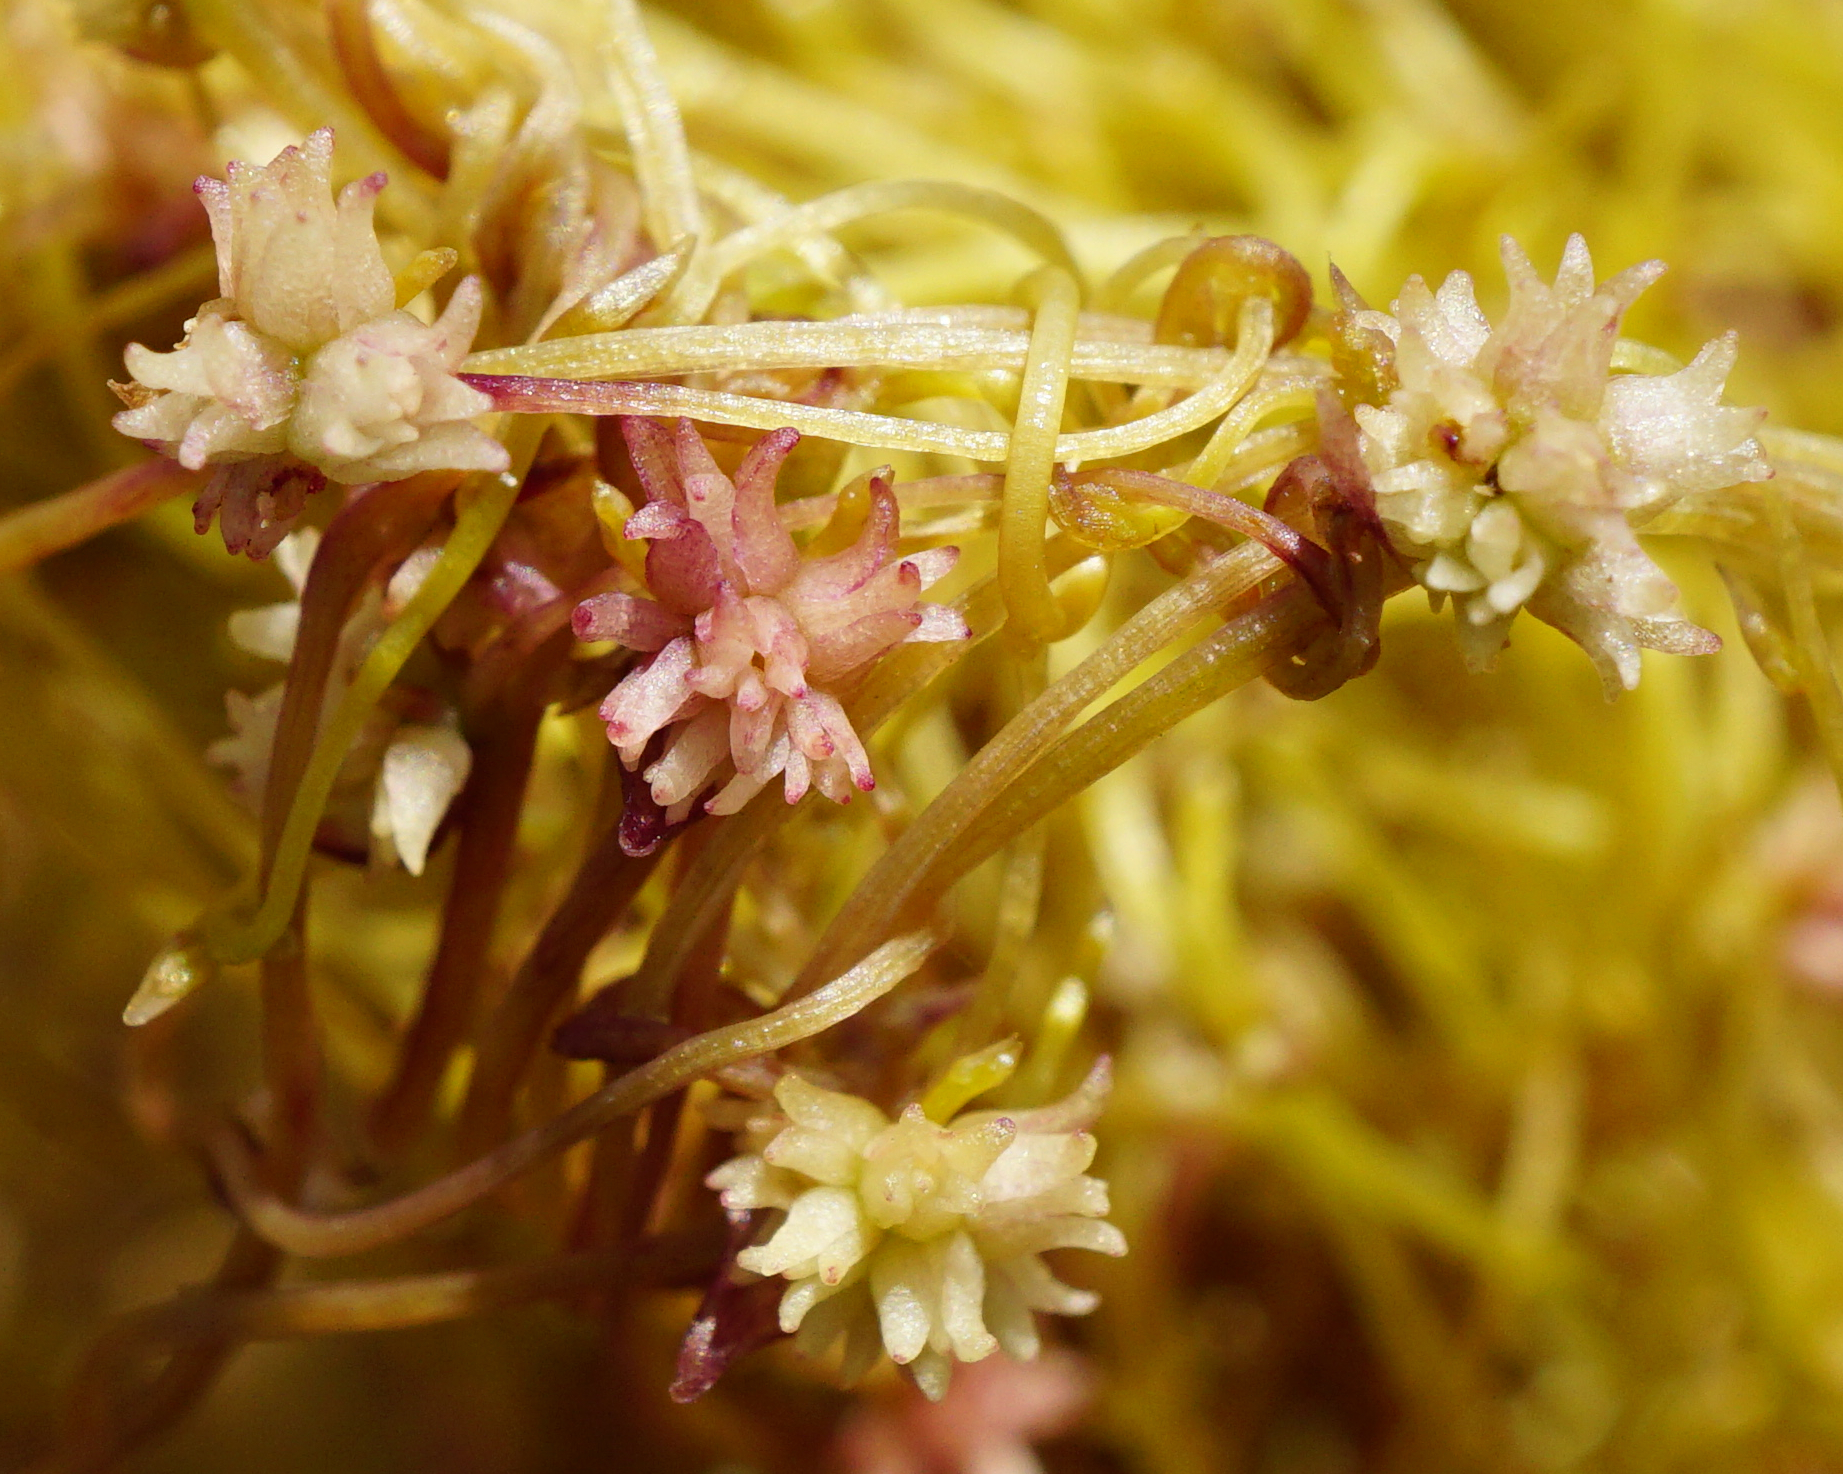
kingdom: Plantae
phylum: Tracheophyta
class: Magnoliopsida
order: Solanales
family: Convolvulaceae
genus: Cuscuta
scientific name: Cuscuta epithymum
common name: Clover dodder
